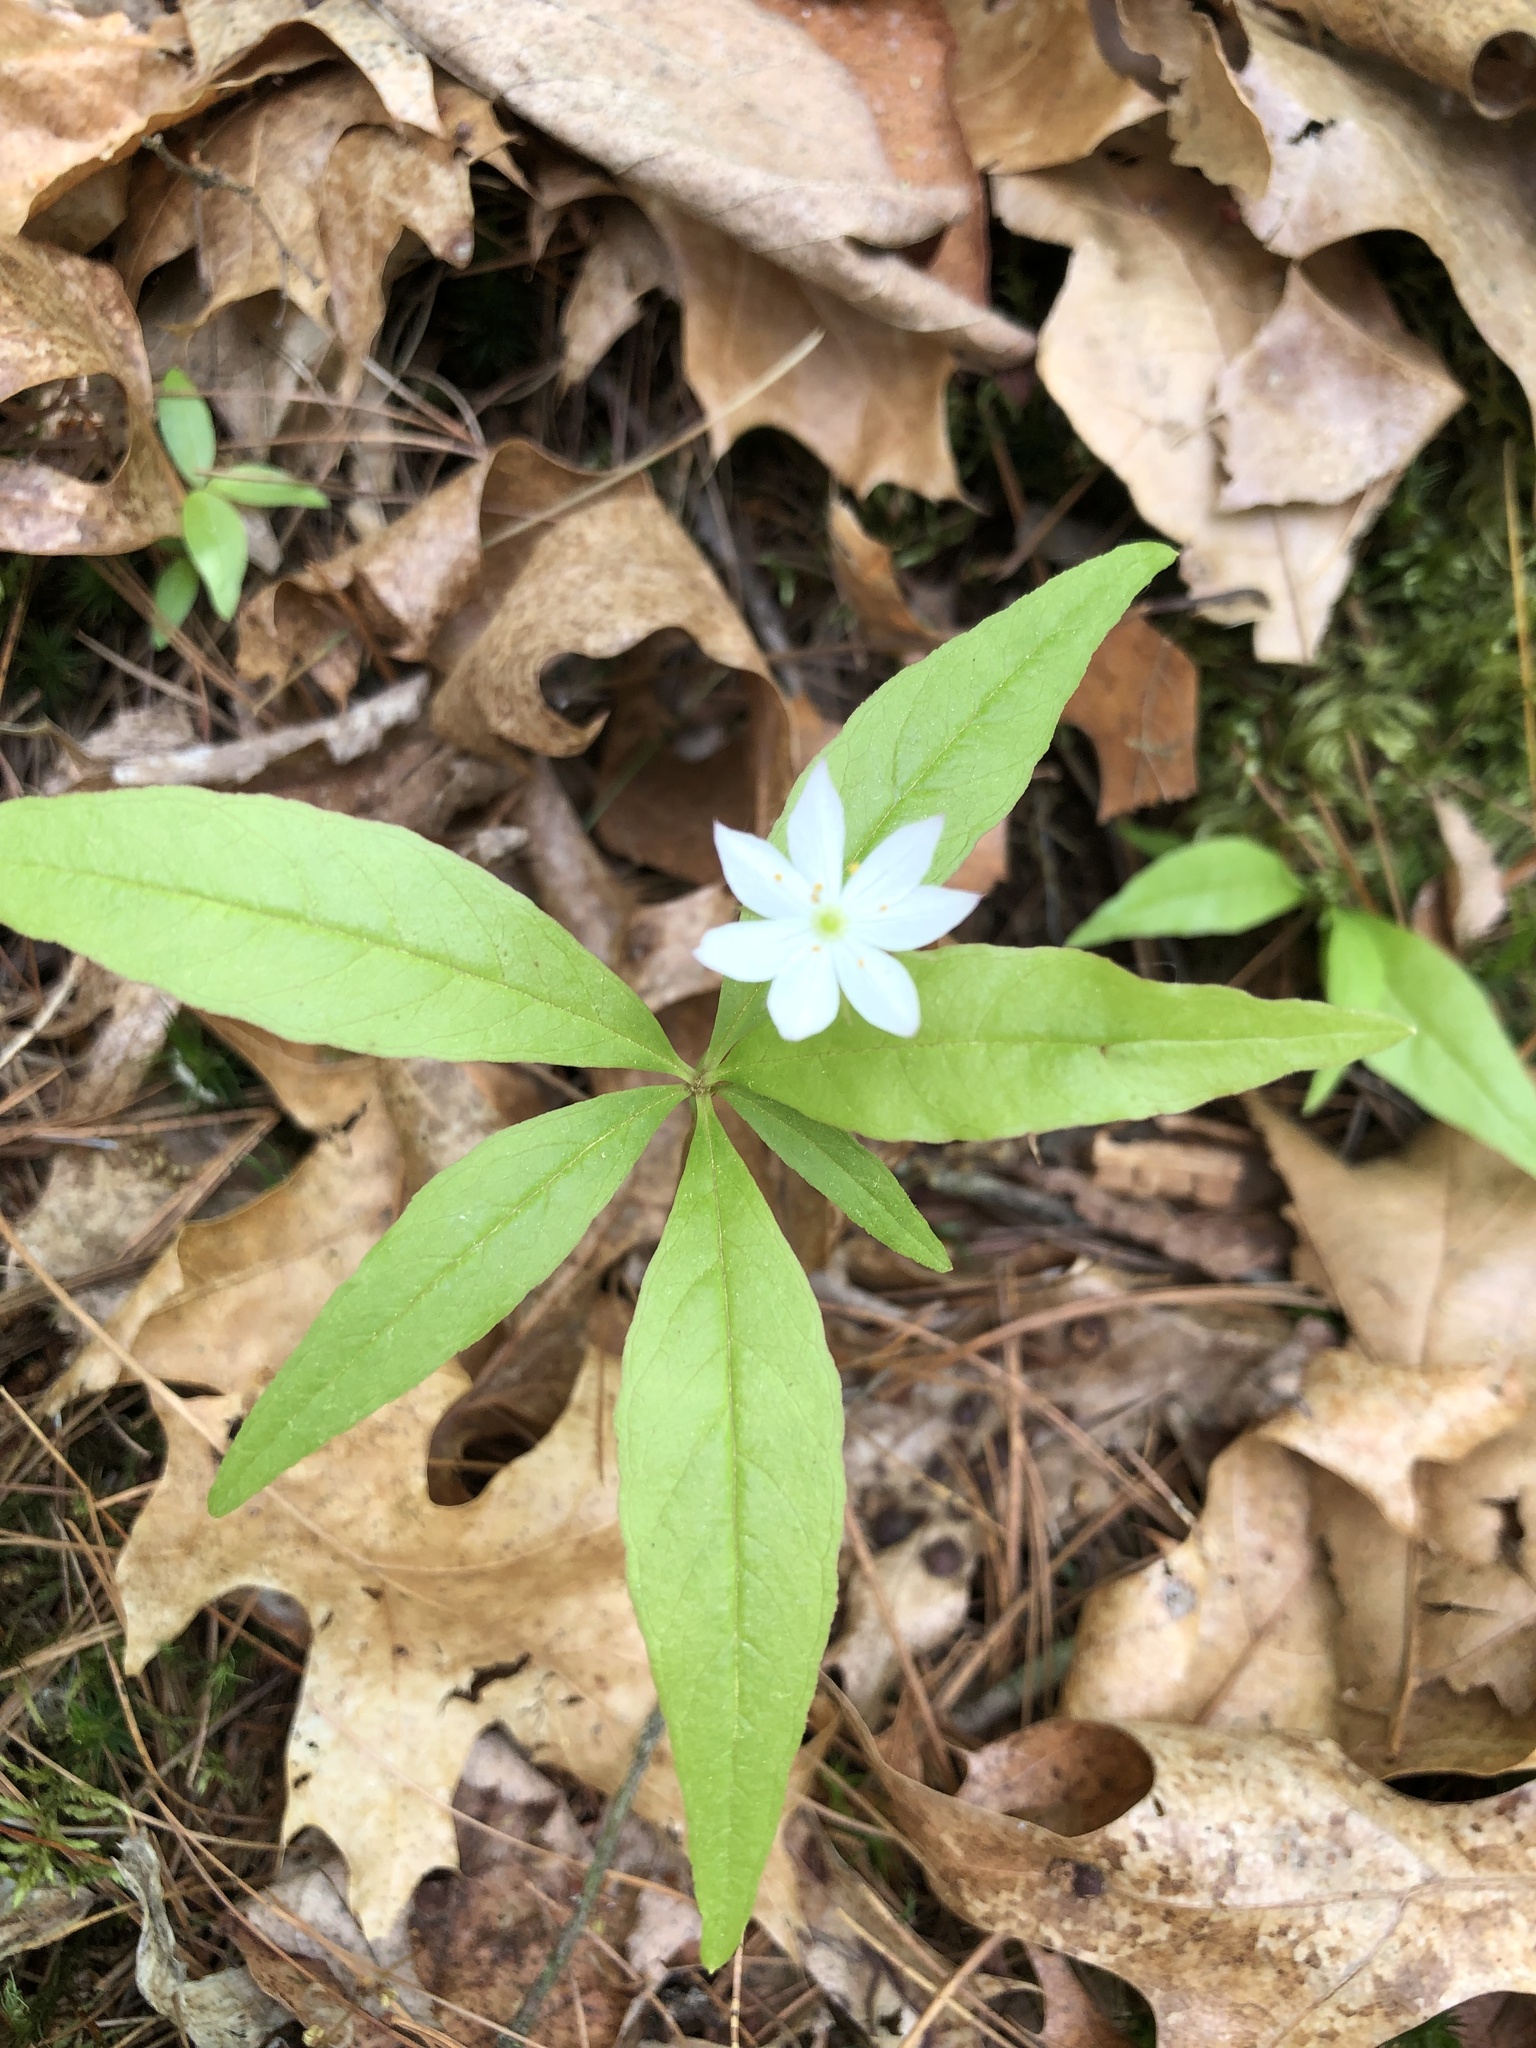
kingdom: Plantae
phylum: Tracheophyta
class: Magnoliopsida
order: Ericales
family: Primulaceae
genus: Lysimachia
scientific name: Lysimachia borealis
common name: American starflower
